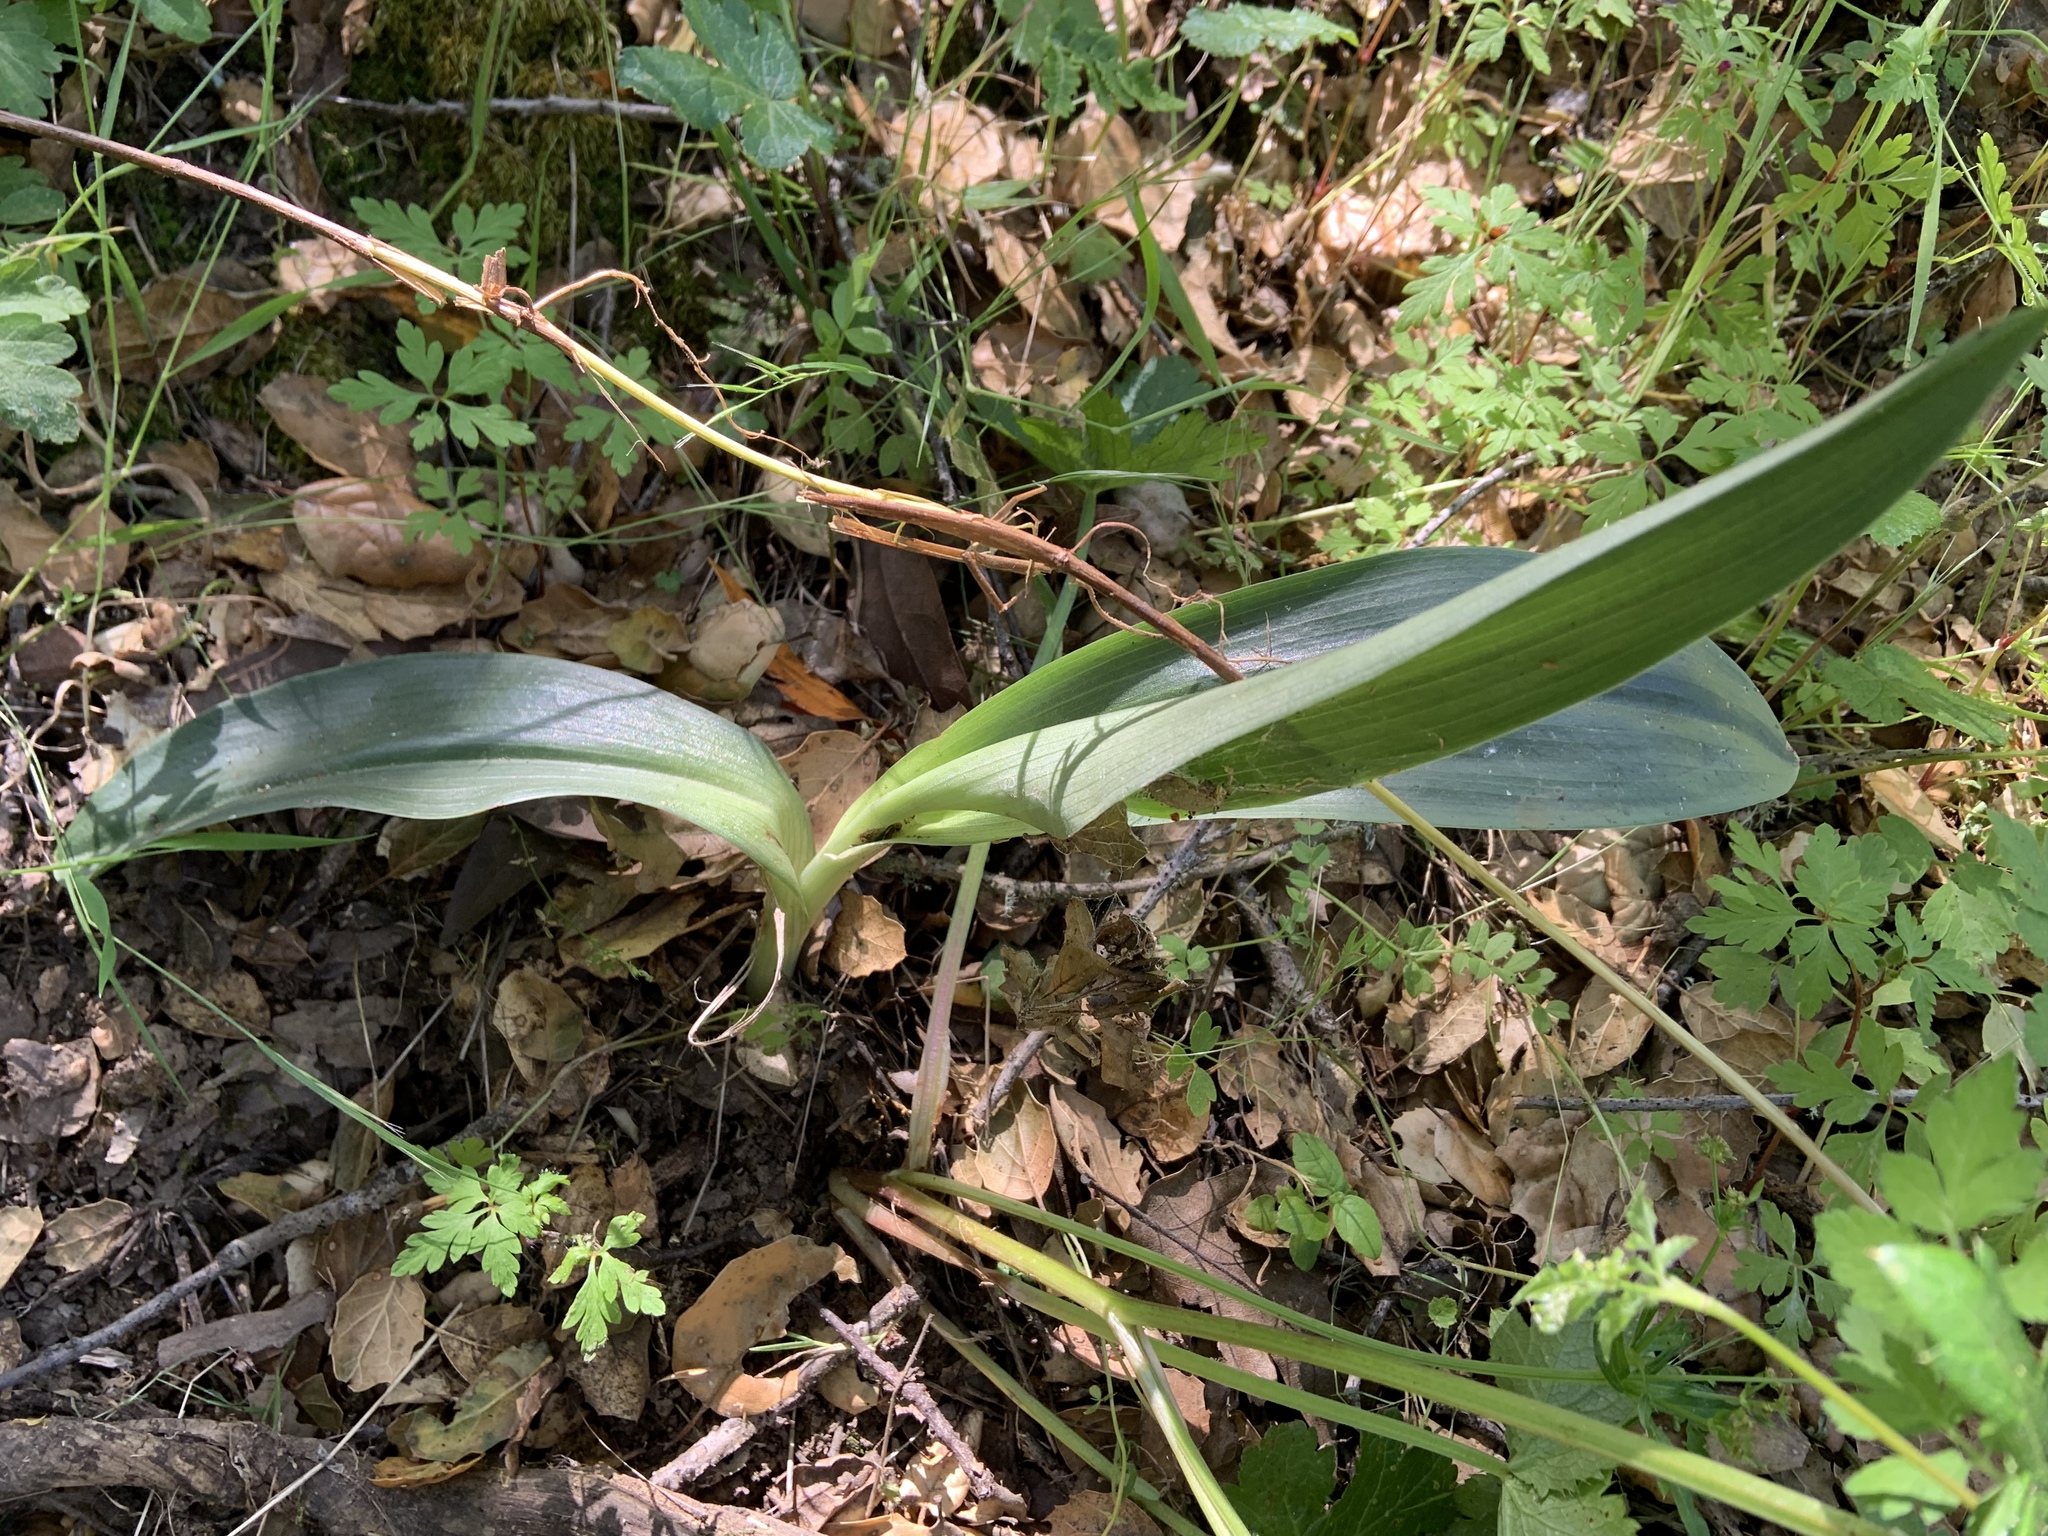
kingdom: Plantae
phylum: Tracheophyta
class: Liliopsida
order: Liliales
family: Liliaceae
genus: Clintonia
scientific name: Clintonia andrewsiana
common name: Red clintonia
